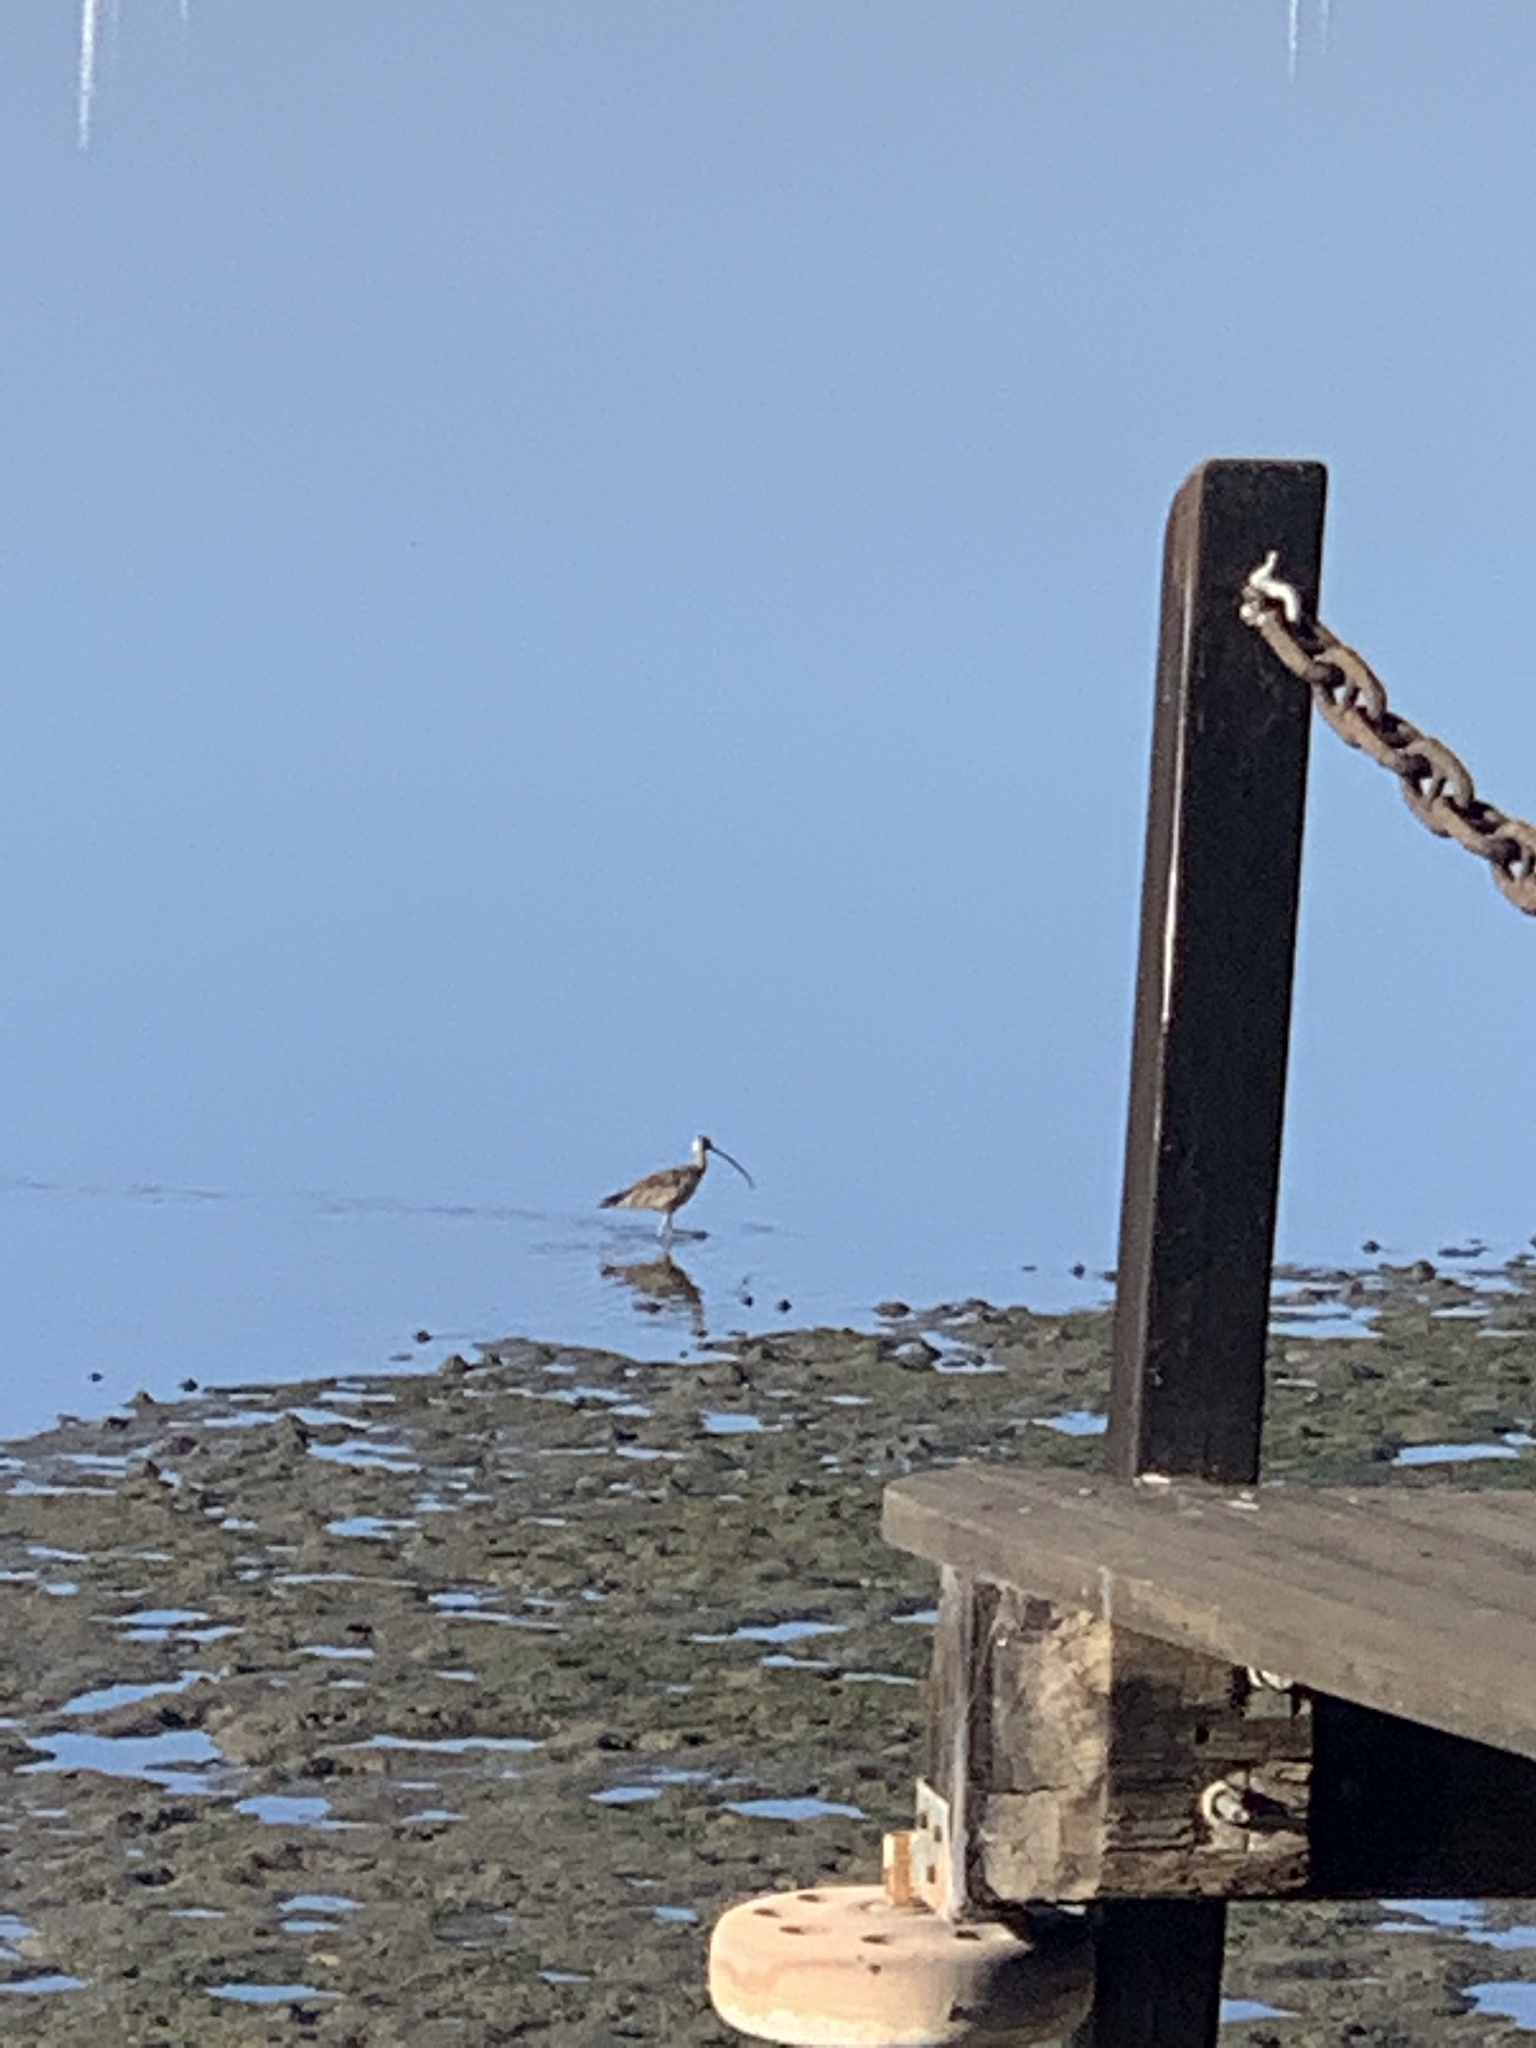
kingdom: Animalia
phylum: Chordata
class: Aves
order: Charadriiformes
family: Scolopacidae
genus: Numenius
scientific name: Numenius americanus
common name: Long-billed curlew
